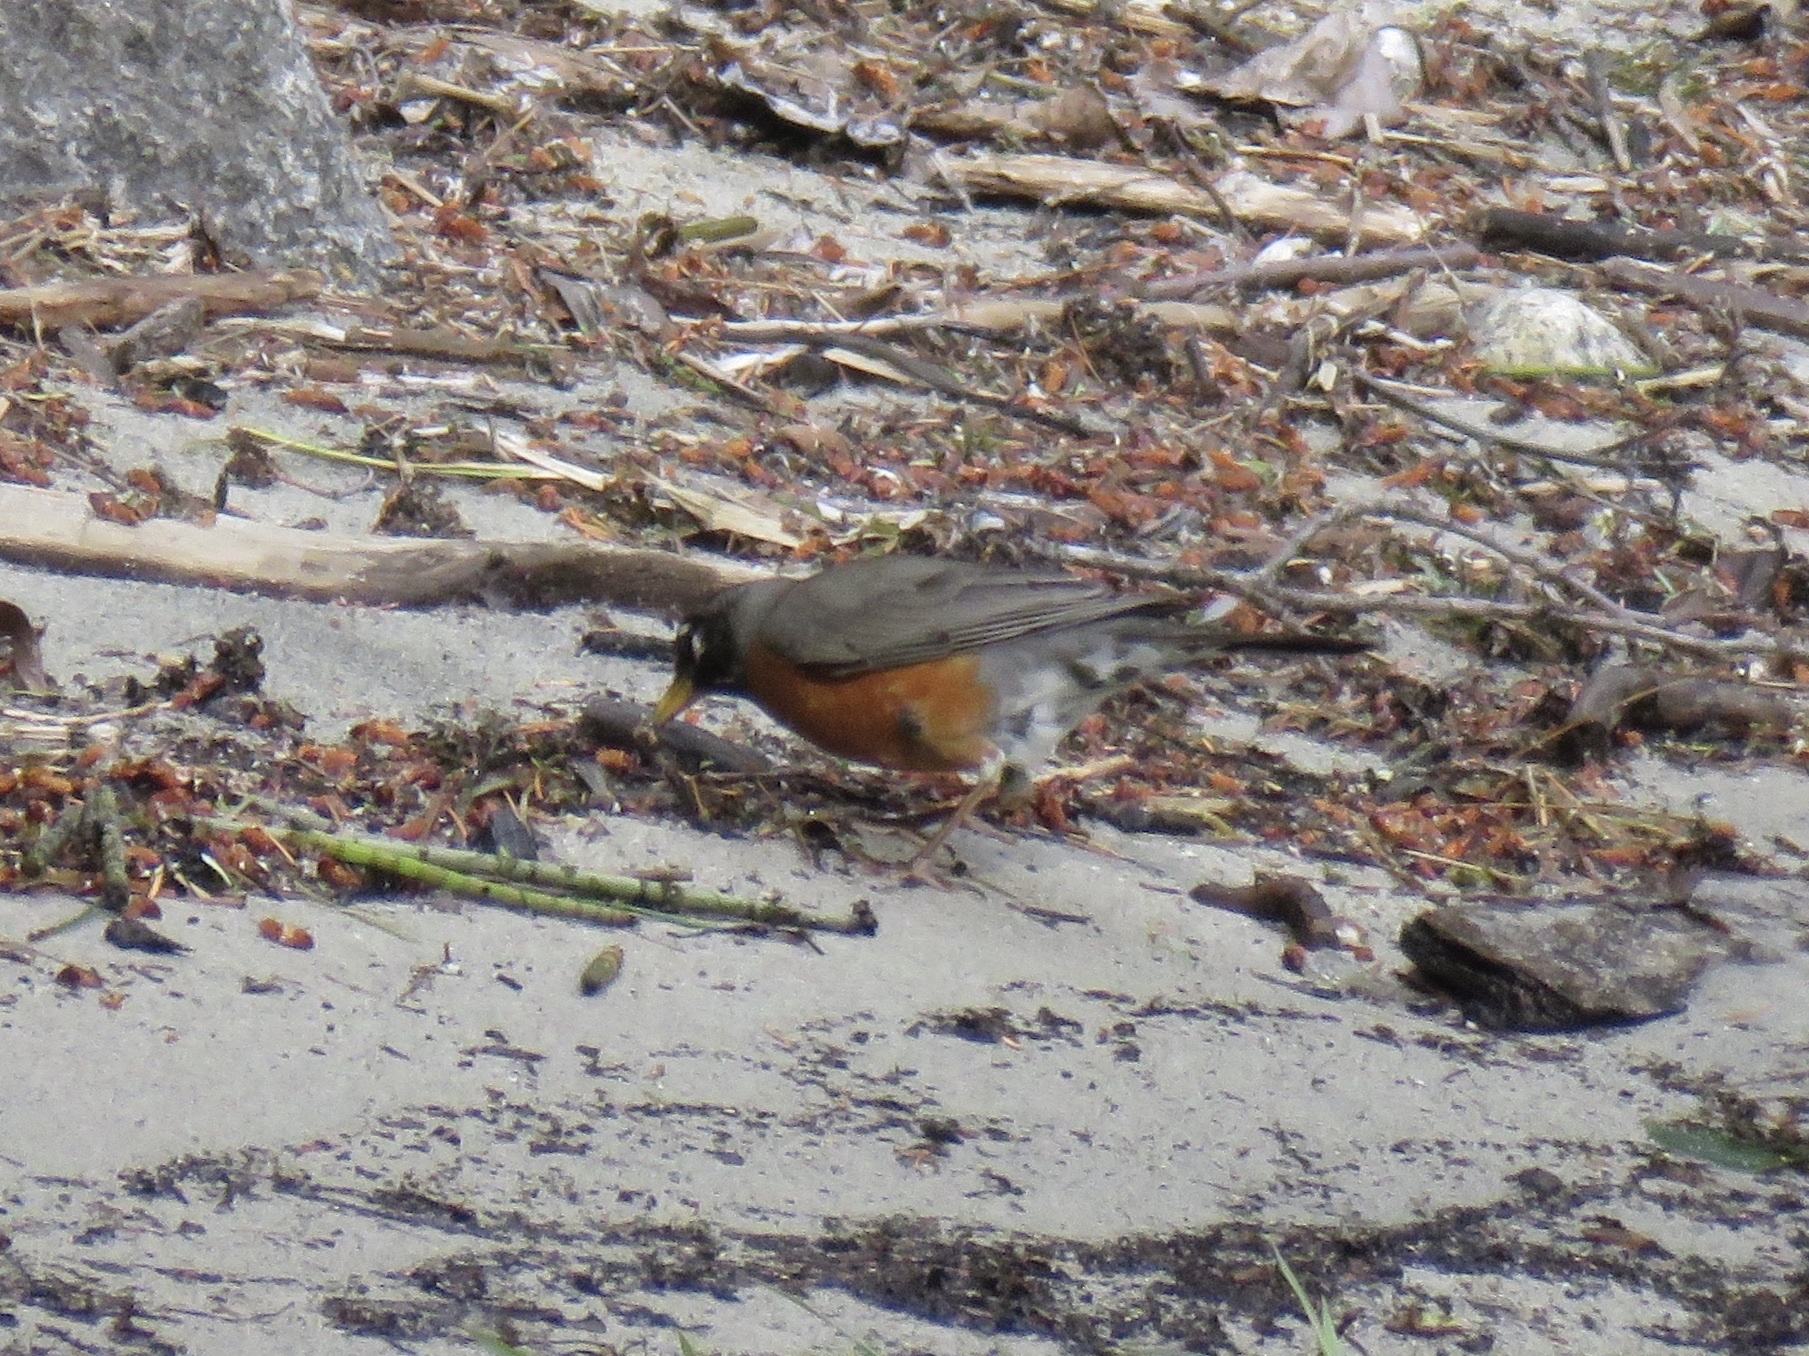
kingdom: Animalia
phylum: Chordata
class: Aves
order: Passeriformes
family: Turdidae
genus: Turdus
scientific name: Turdus migratorius
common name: American robin
